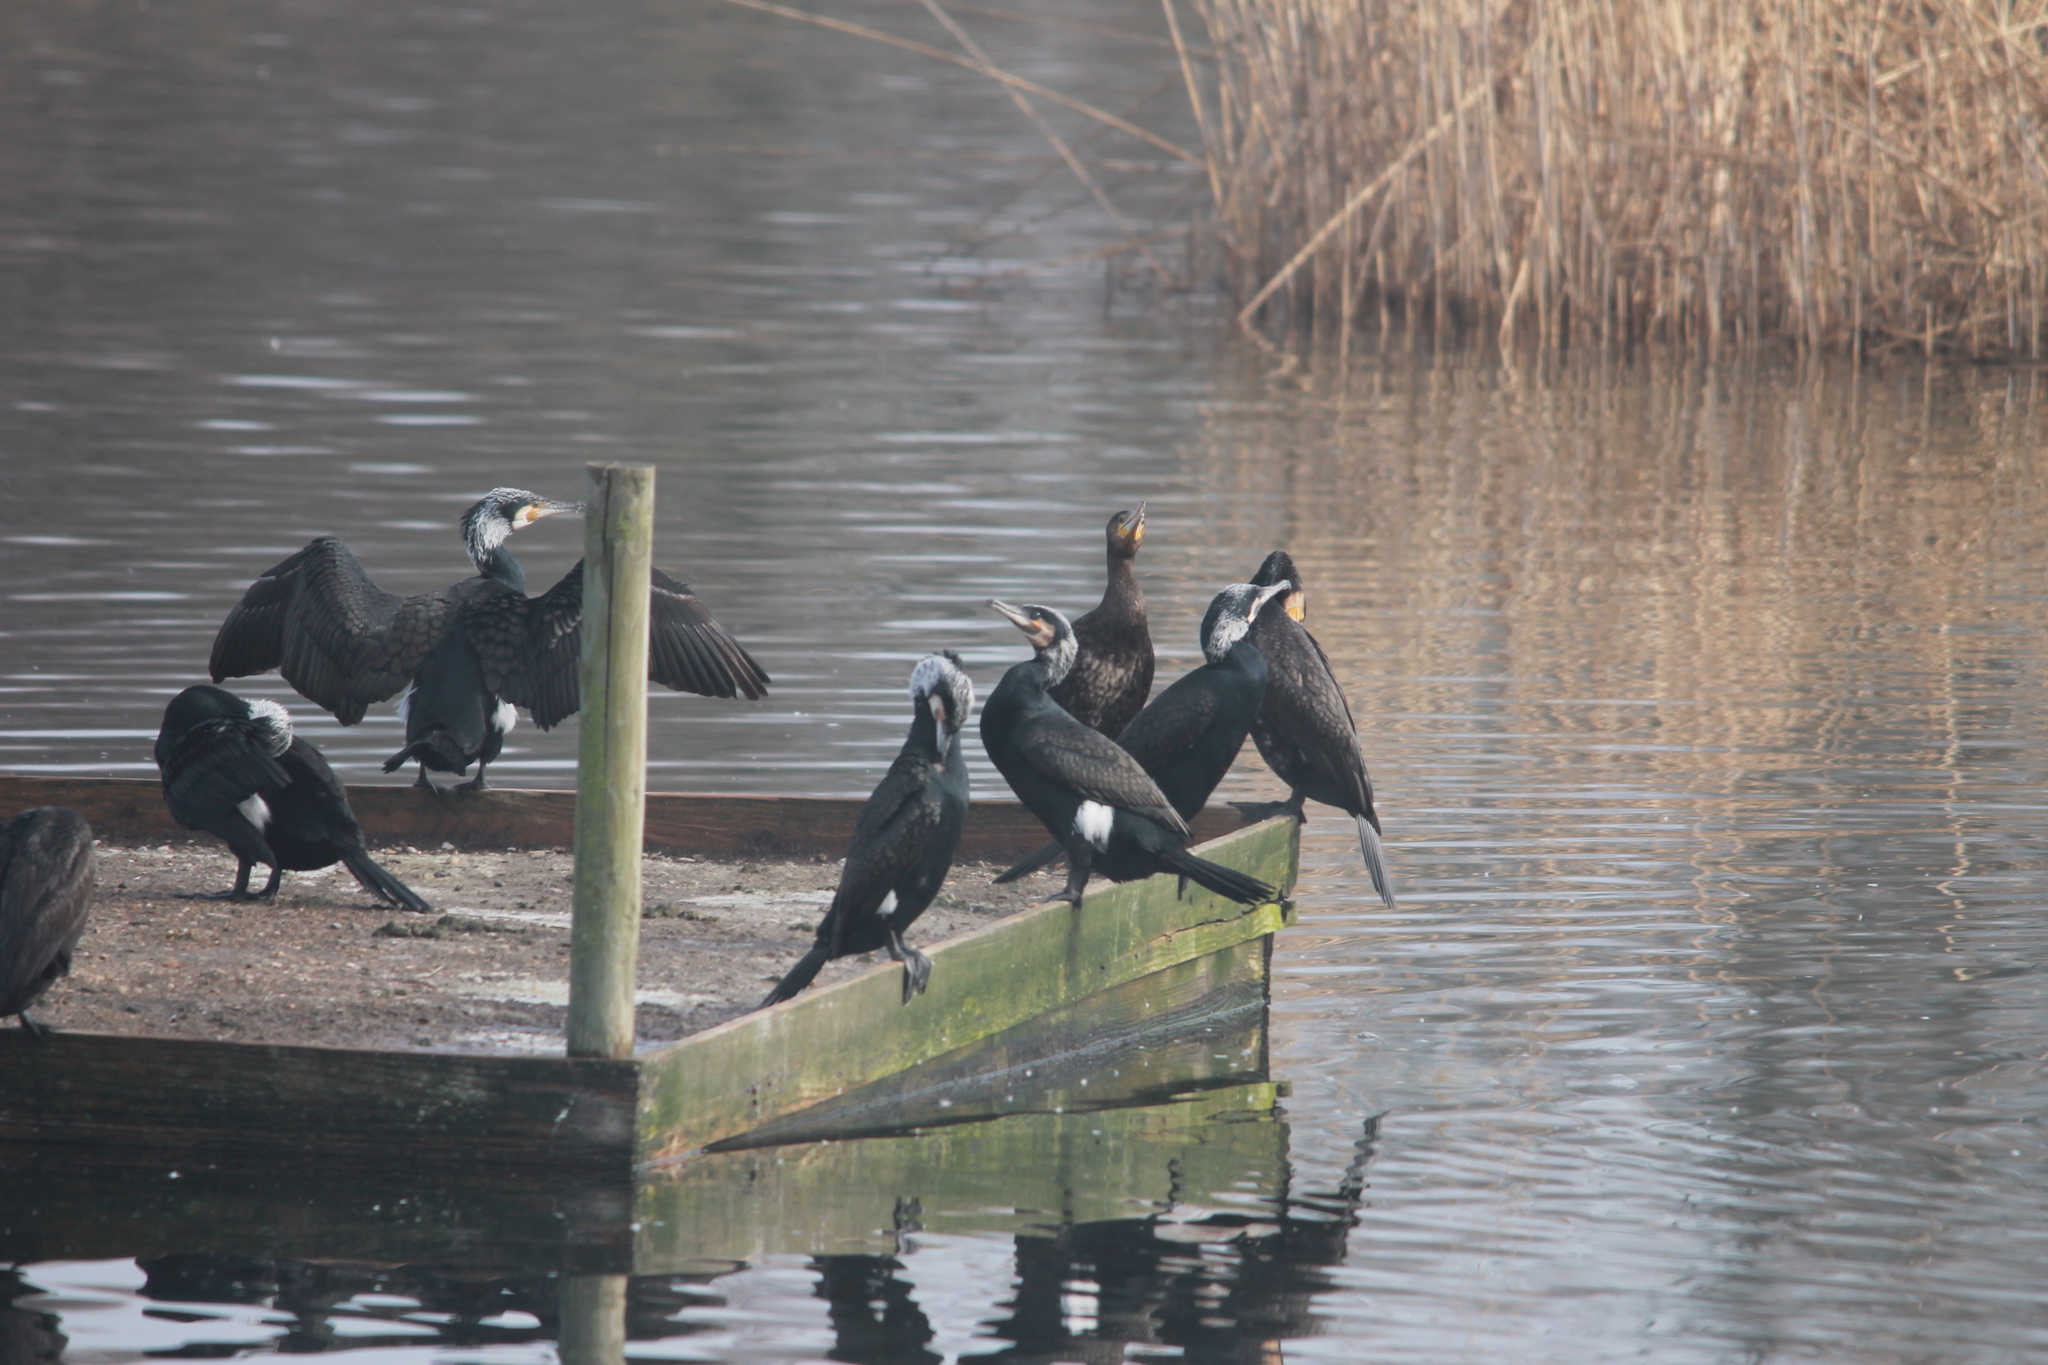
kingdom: Animalia
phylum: Chordata
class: Aves
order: Suliformes
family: Phalacrocoracidae
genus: Phalacrocorax
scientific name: Phalacrocorax carbo
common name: Great cormorant
